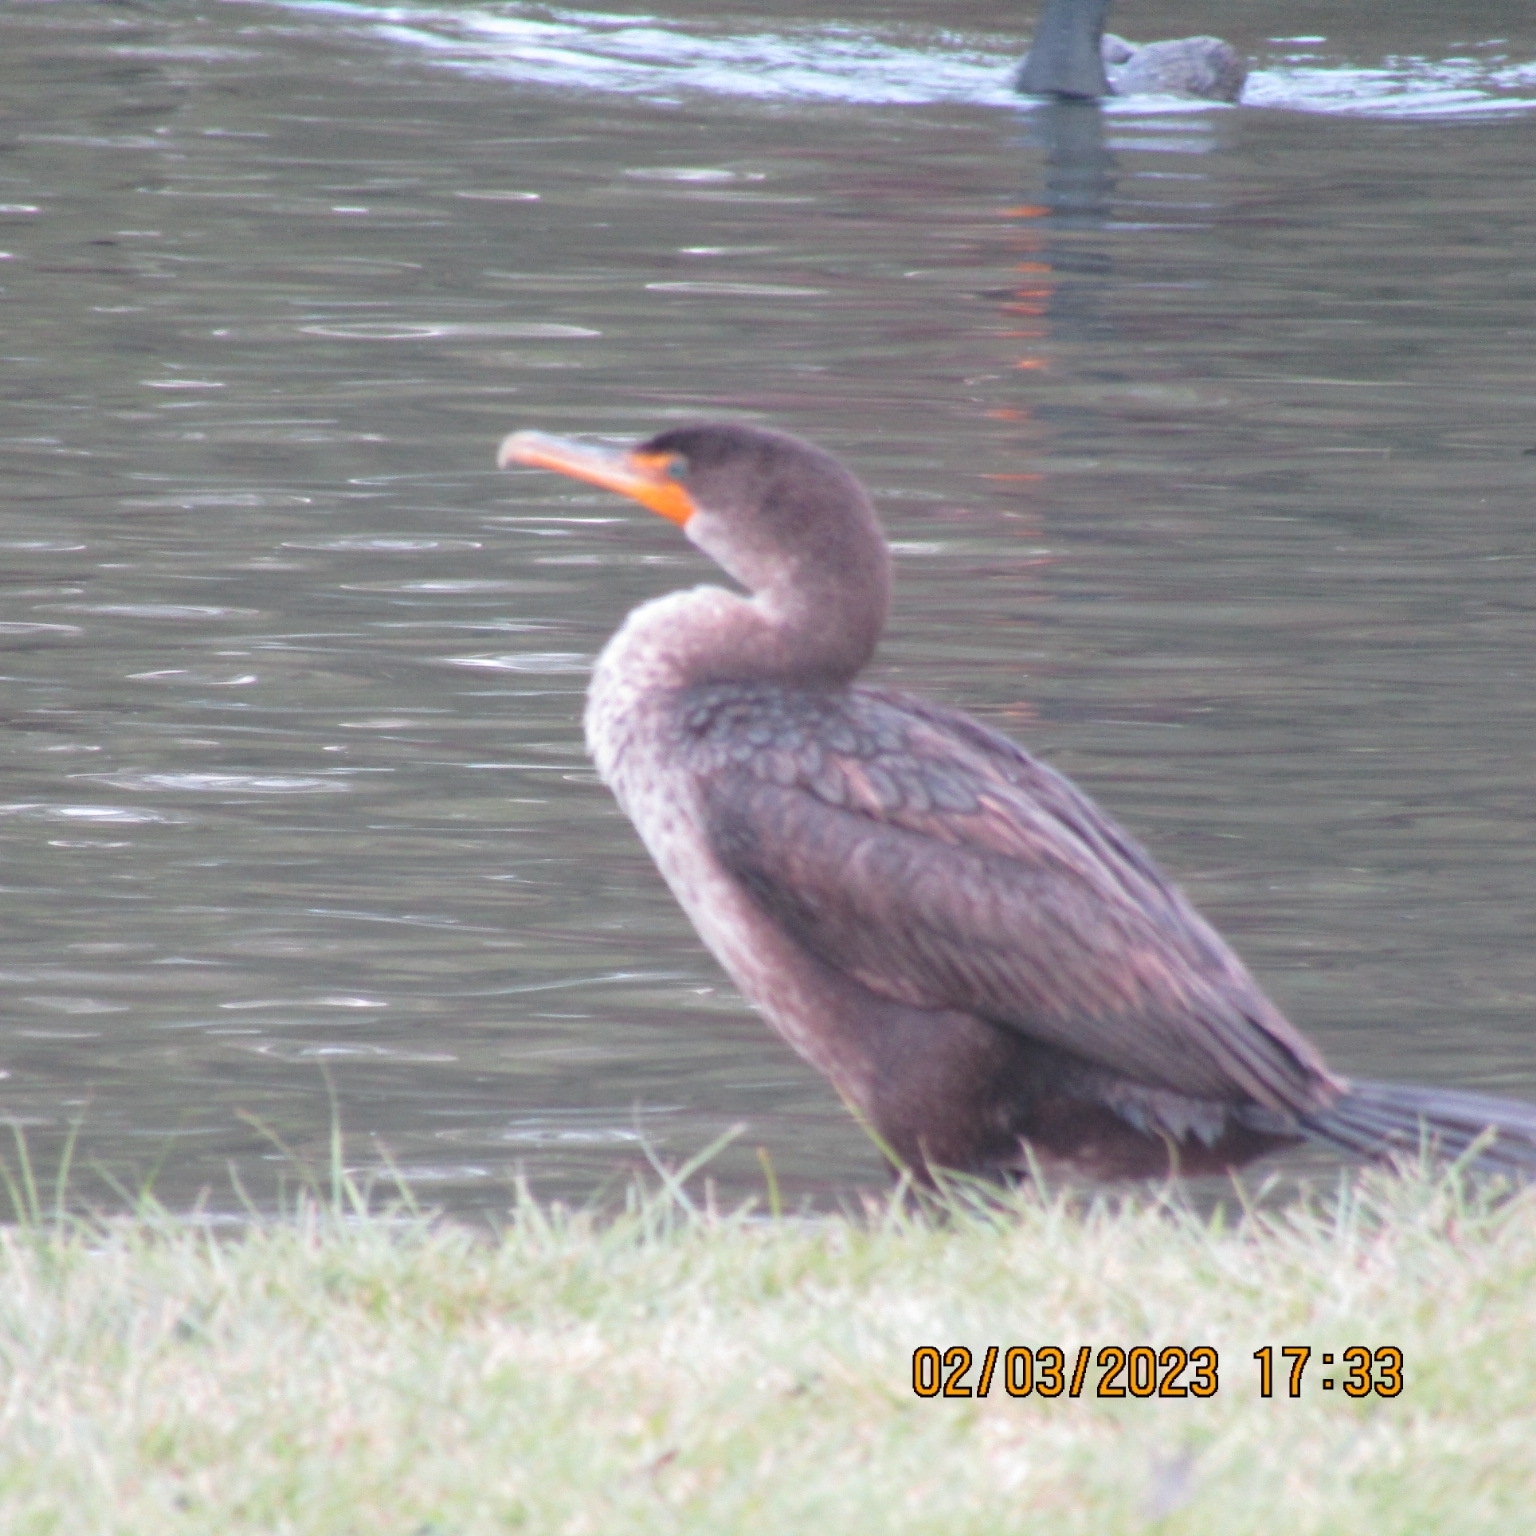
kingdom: Animalia
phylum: Chordata
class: Aves
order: Suliformes
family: Phalacrocoracidae
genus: Phalacrocorax
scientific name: Phalacrocorax auritus
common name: Double-crested cormorant
